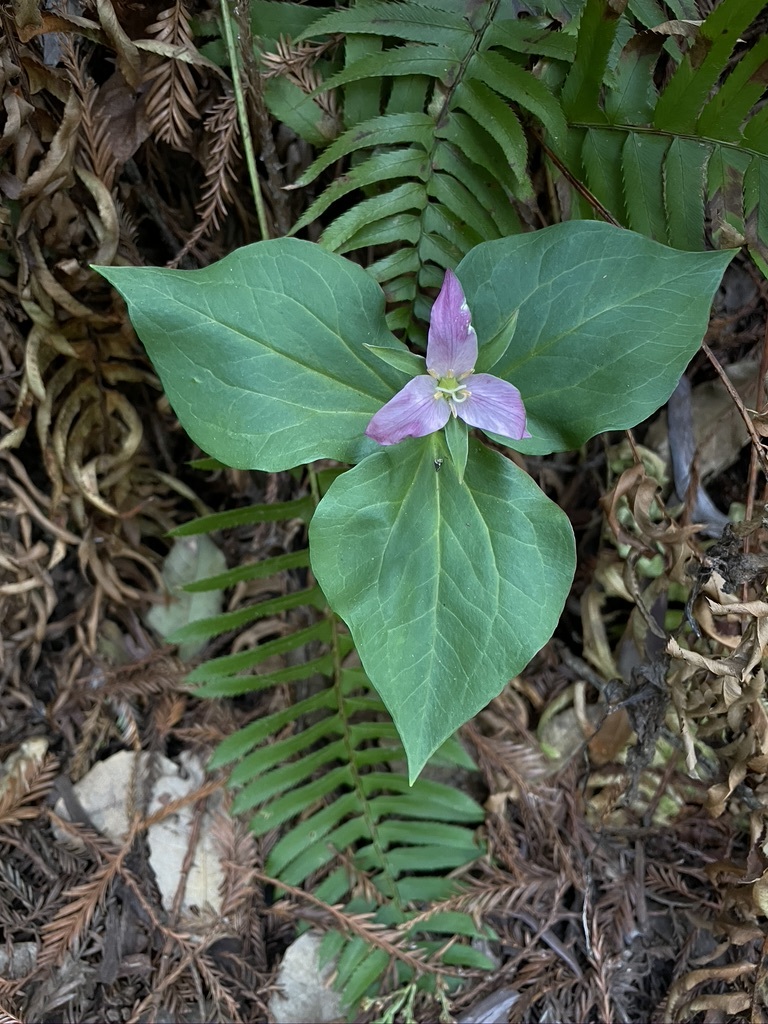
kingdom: Plantae
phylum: Tracheophyta
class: Liliopsida
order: Liliales
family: Melanthiaceae
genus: Trillium
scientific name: Trillium ovatum
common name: Pacific trillium
